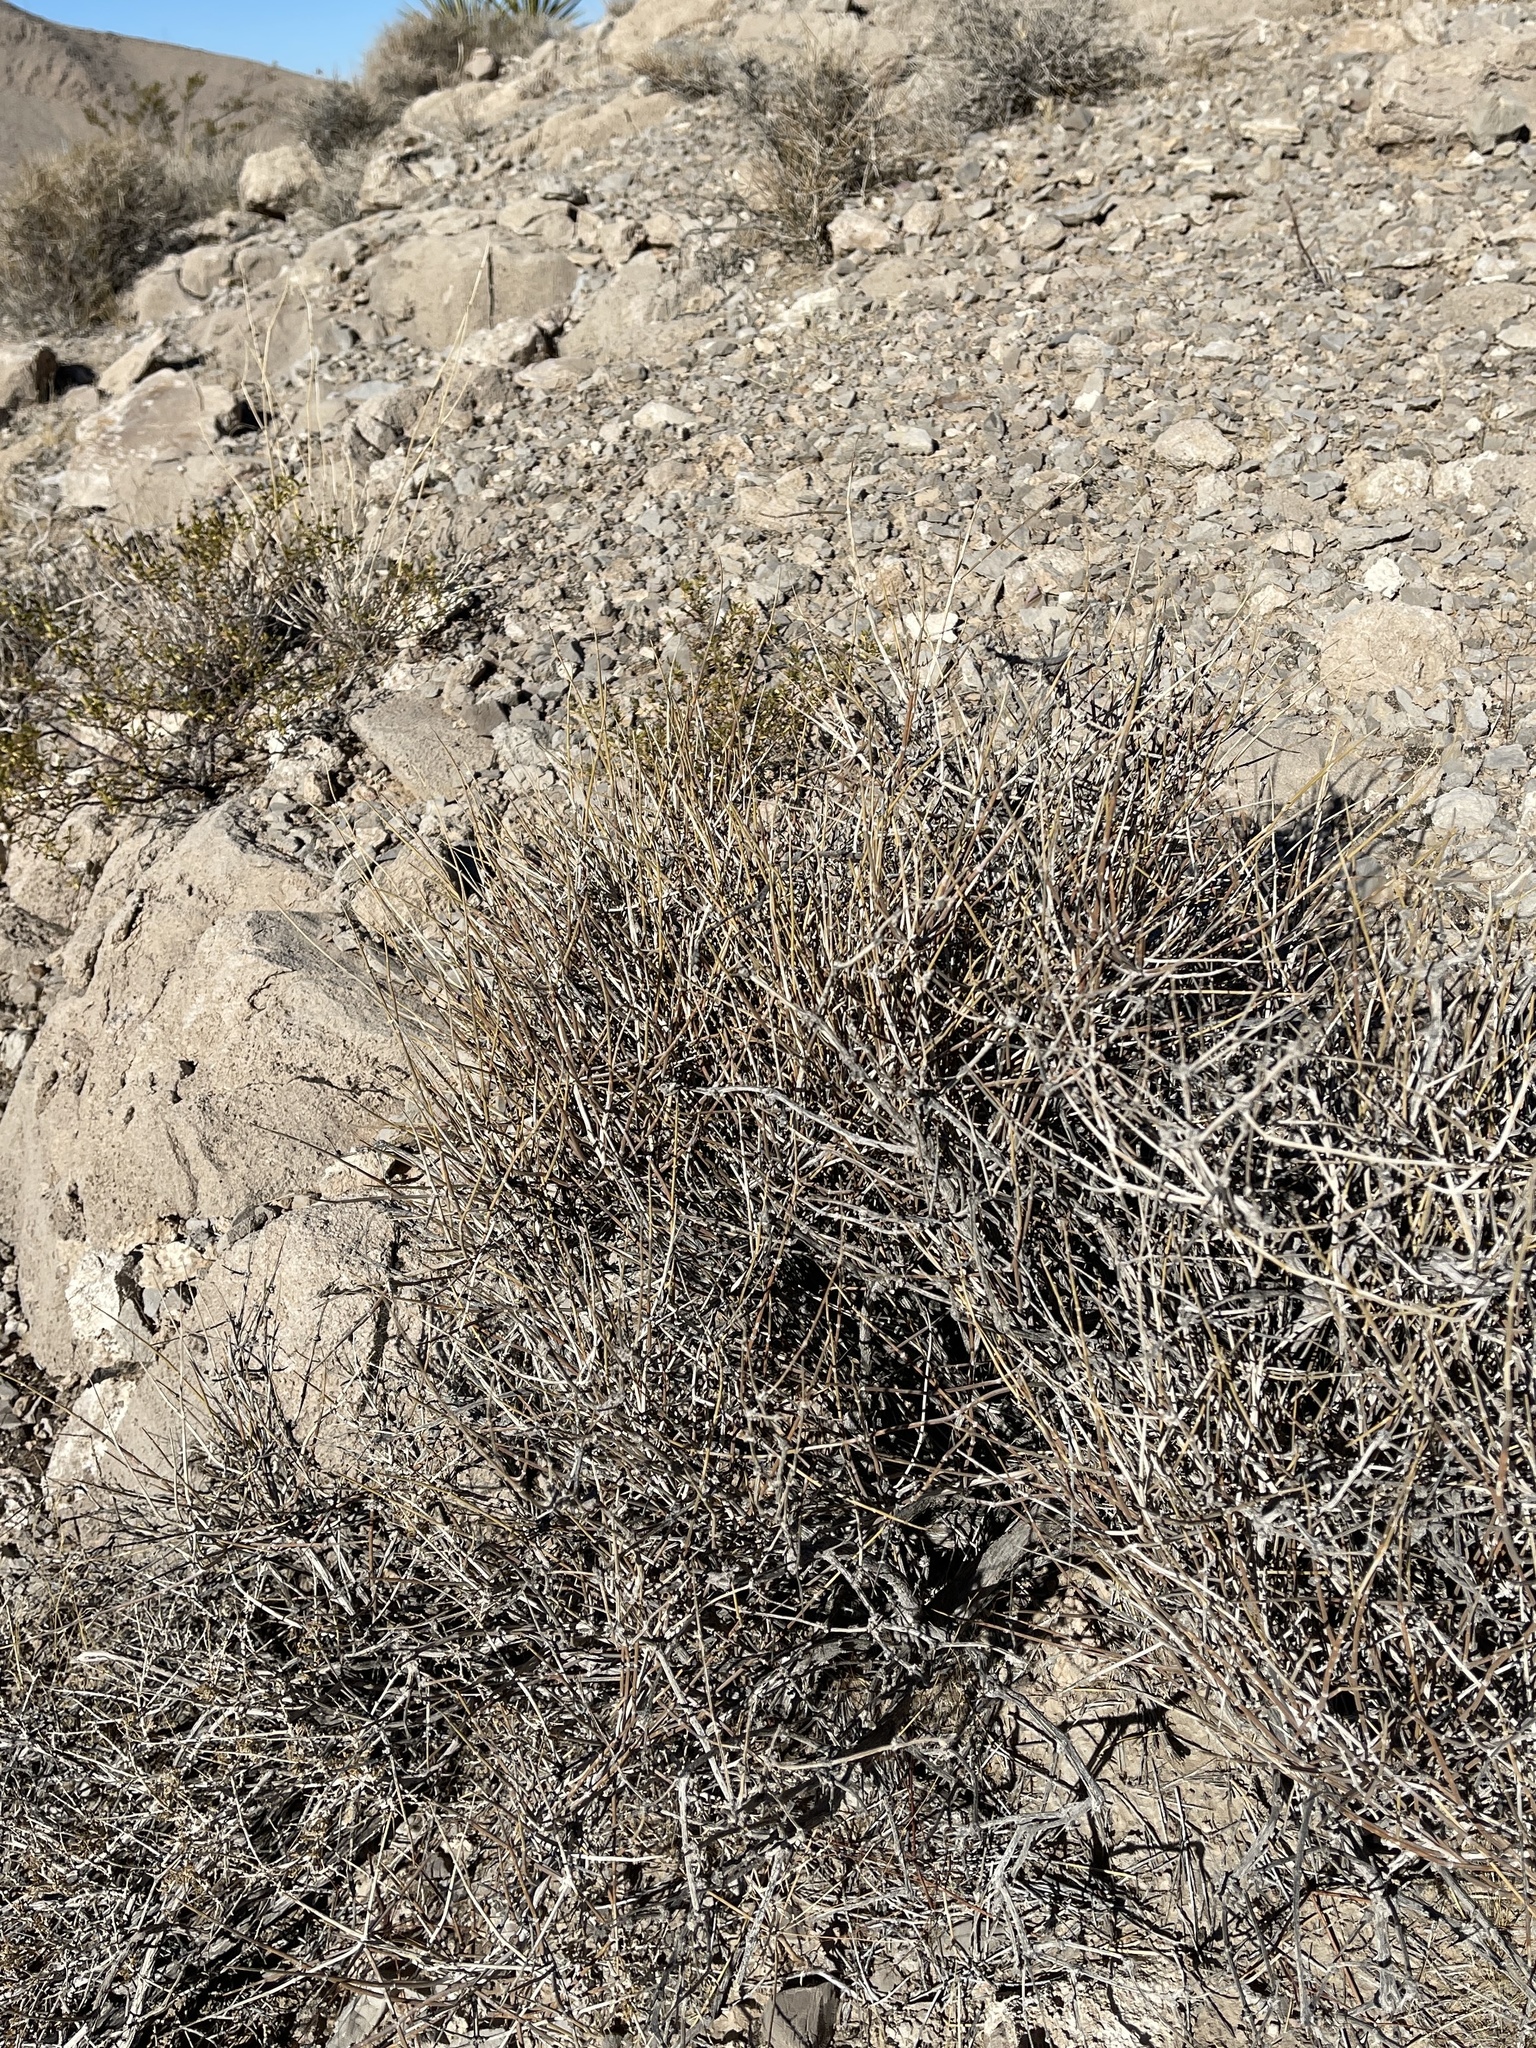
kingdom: Plantae
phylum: Tracheophyta
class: Gnetopsida
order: Ephedrales
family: Ephedraceae
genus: Ephedra
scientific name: Ephedra nevadensis
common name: Gray ephedra
